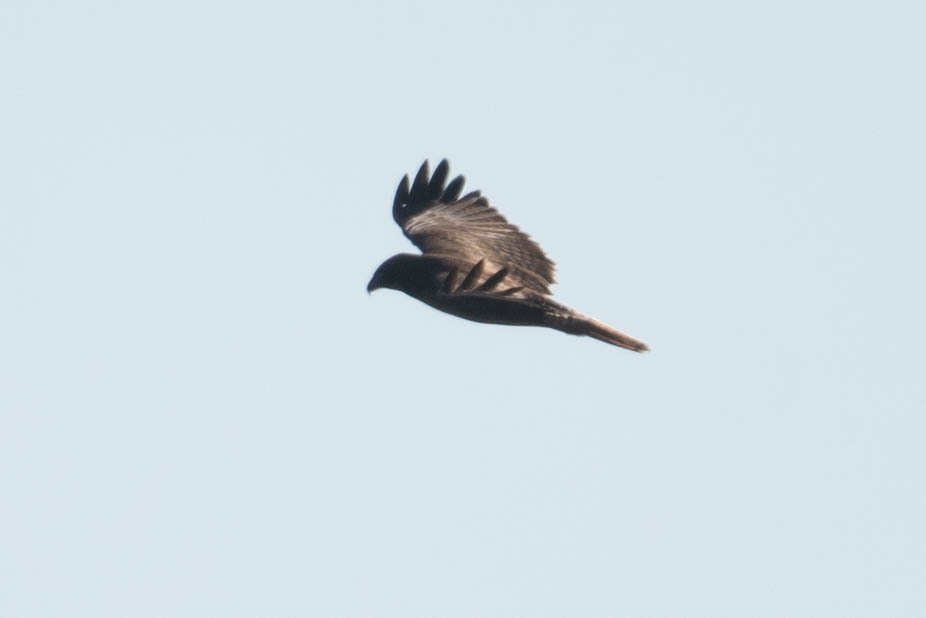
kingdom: Animalia
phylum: Chordata
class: Aves
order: Accipitriformes
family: Accipitridae
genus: Buteo
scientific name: Buteo jamaicensis
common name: Red-tailed hawk
